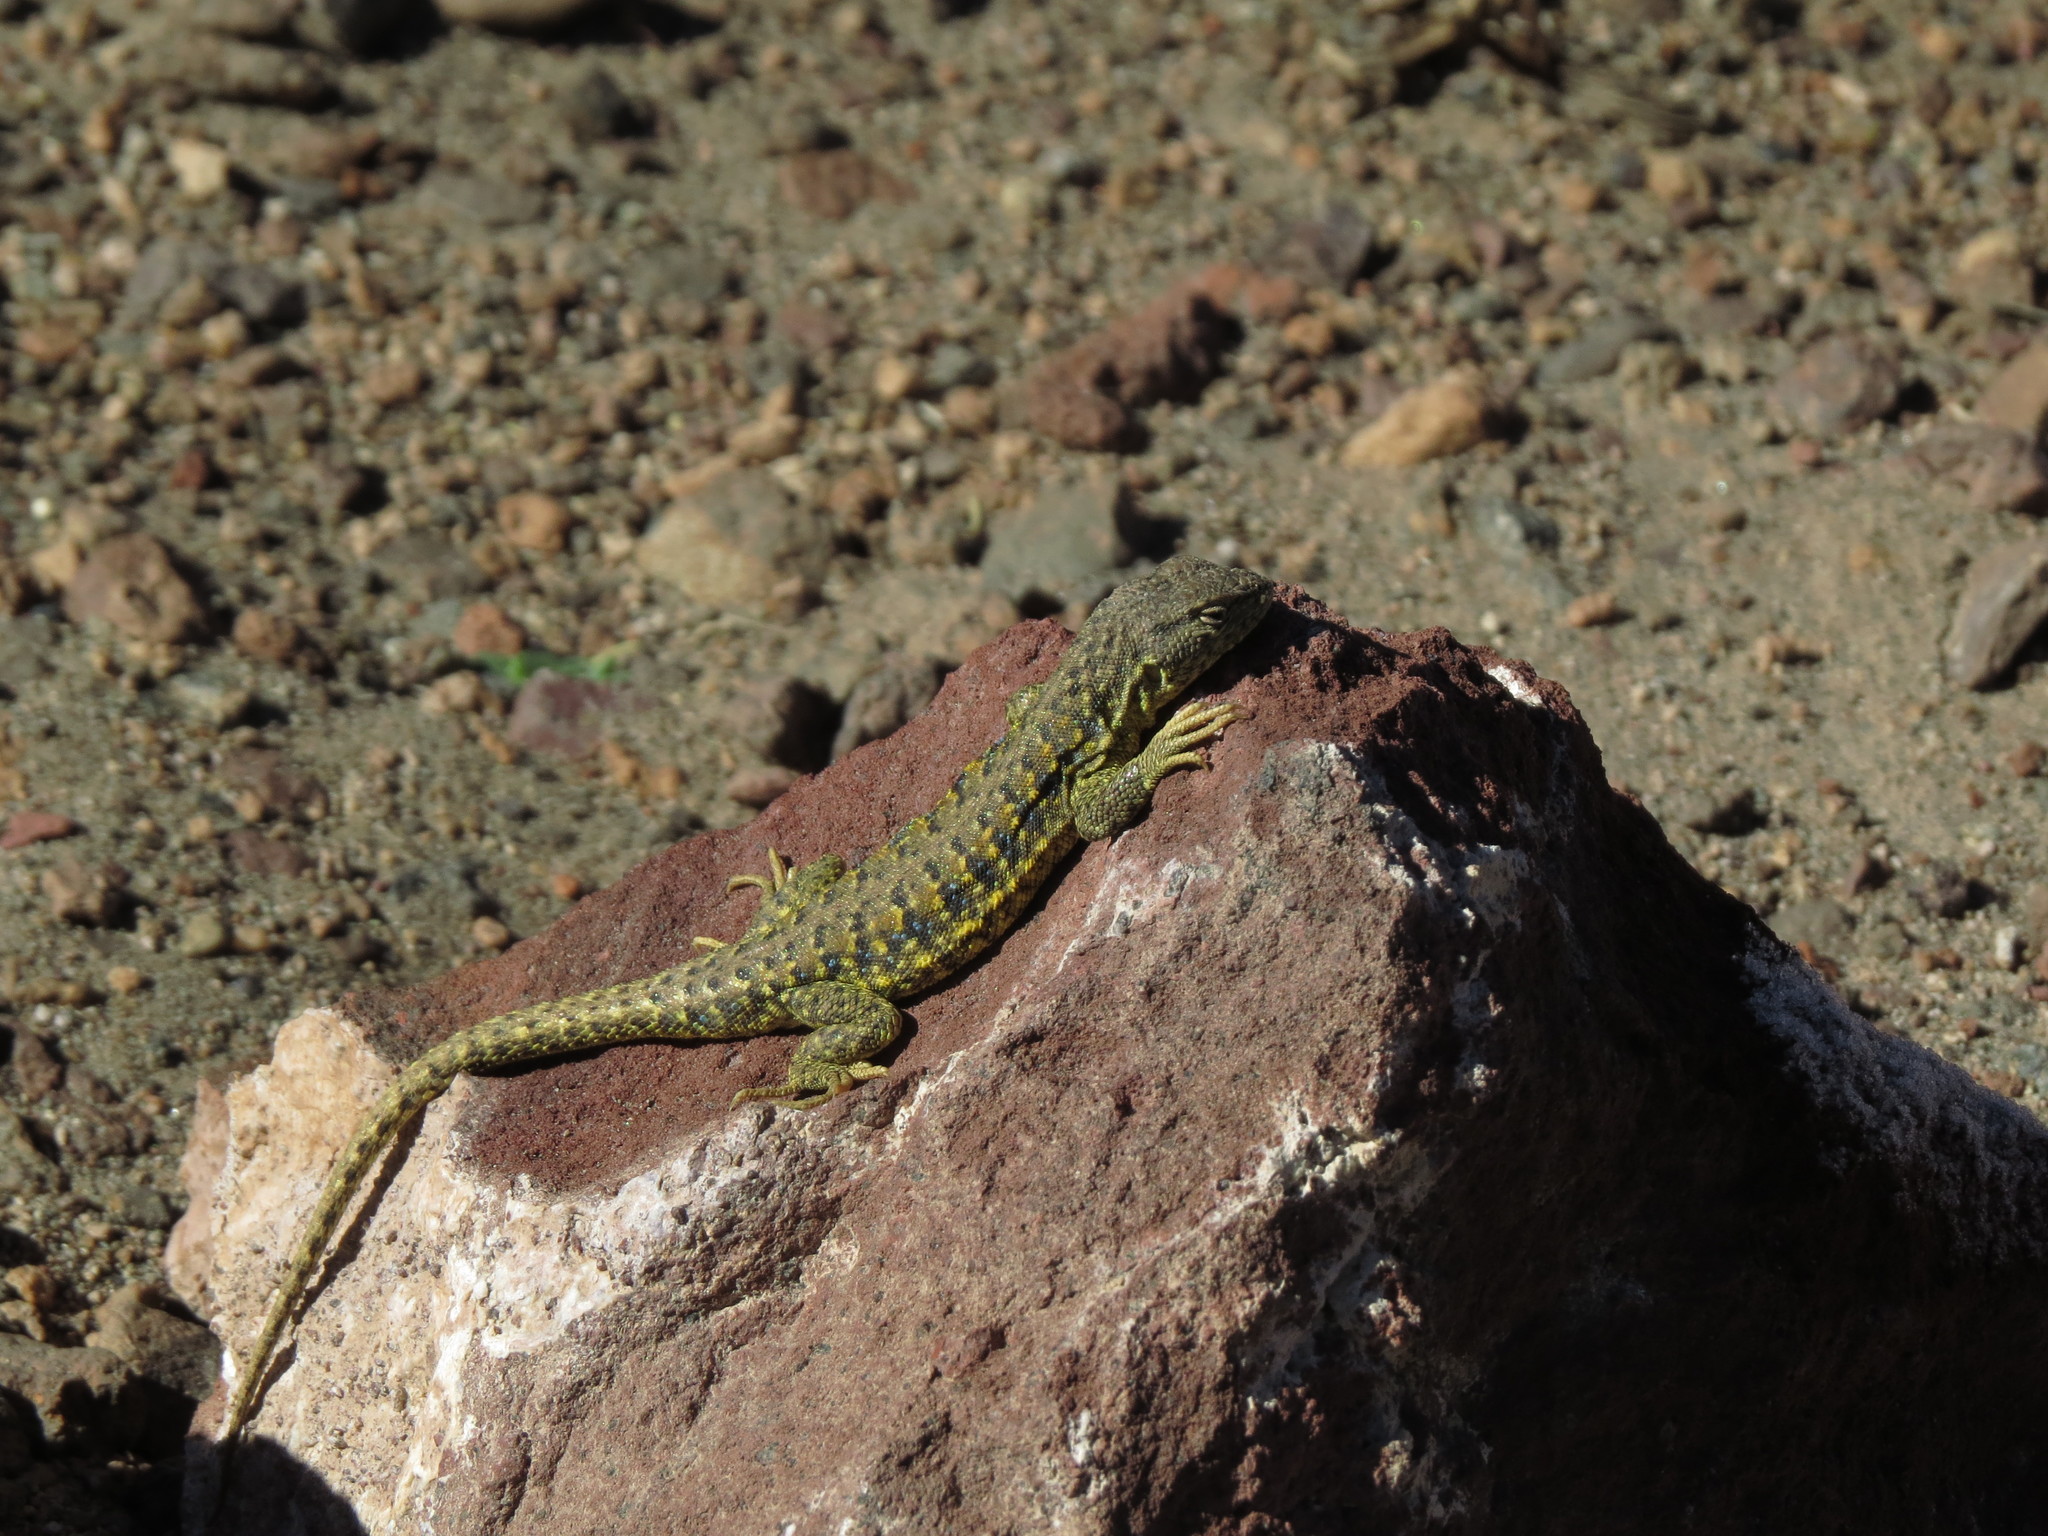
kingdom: Animalia
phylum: Chordata
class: Squamata
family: Liolaemidae
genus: Liolaemus
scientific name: Liolaemus omorfi
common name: Beautiful lizard
